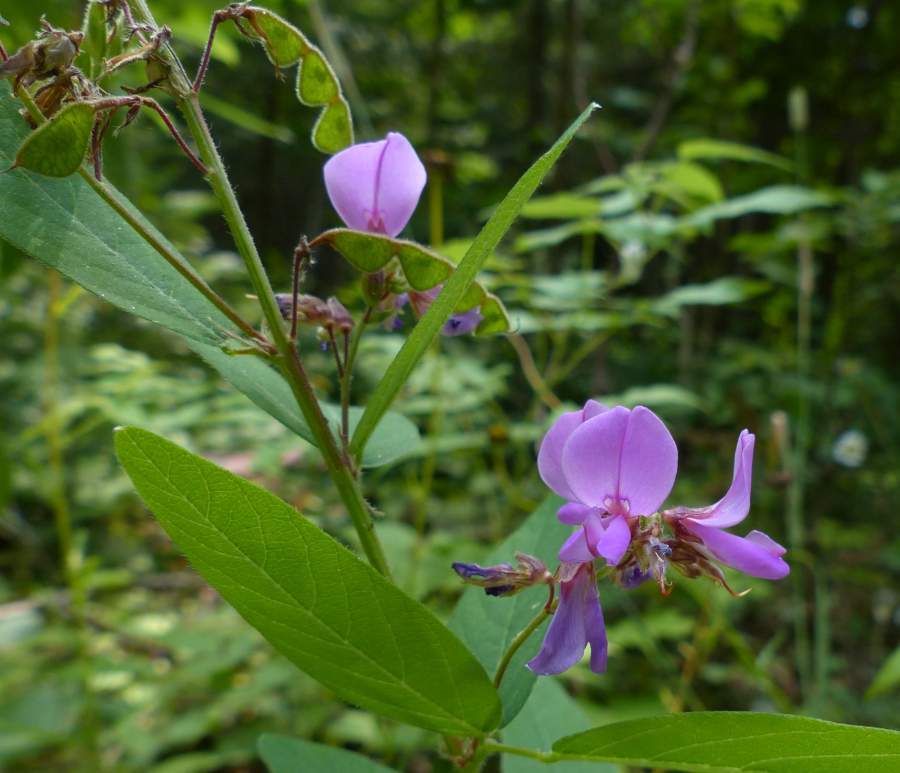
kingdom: Plantae
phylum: Tracheophyta
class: Magnoliopsida
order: Fabales
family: Fabaceae
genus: Desmodium
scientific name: Desmodium canadense
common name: Canada tick-trefoil
